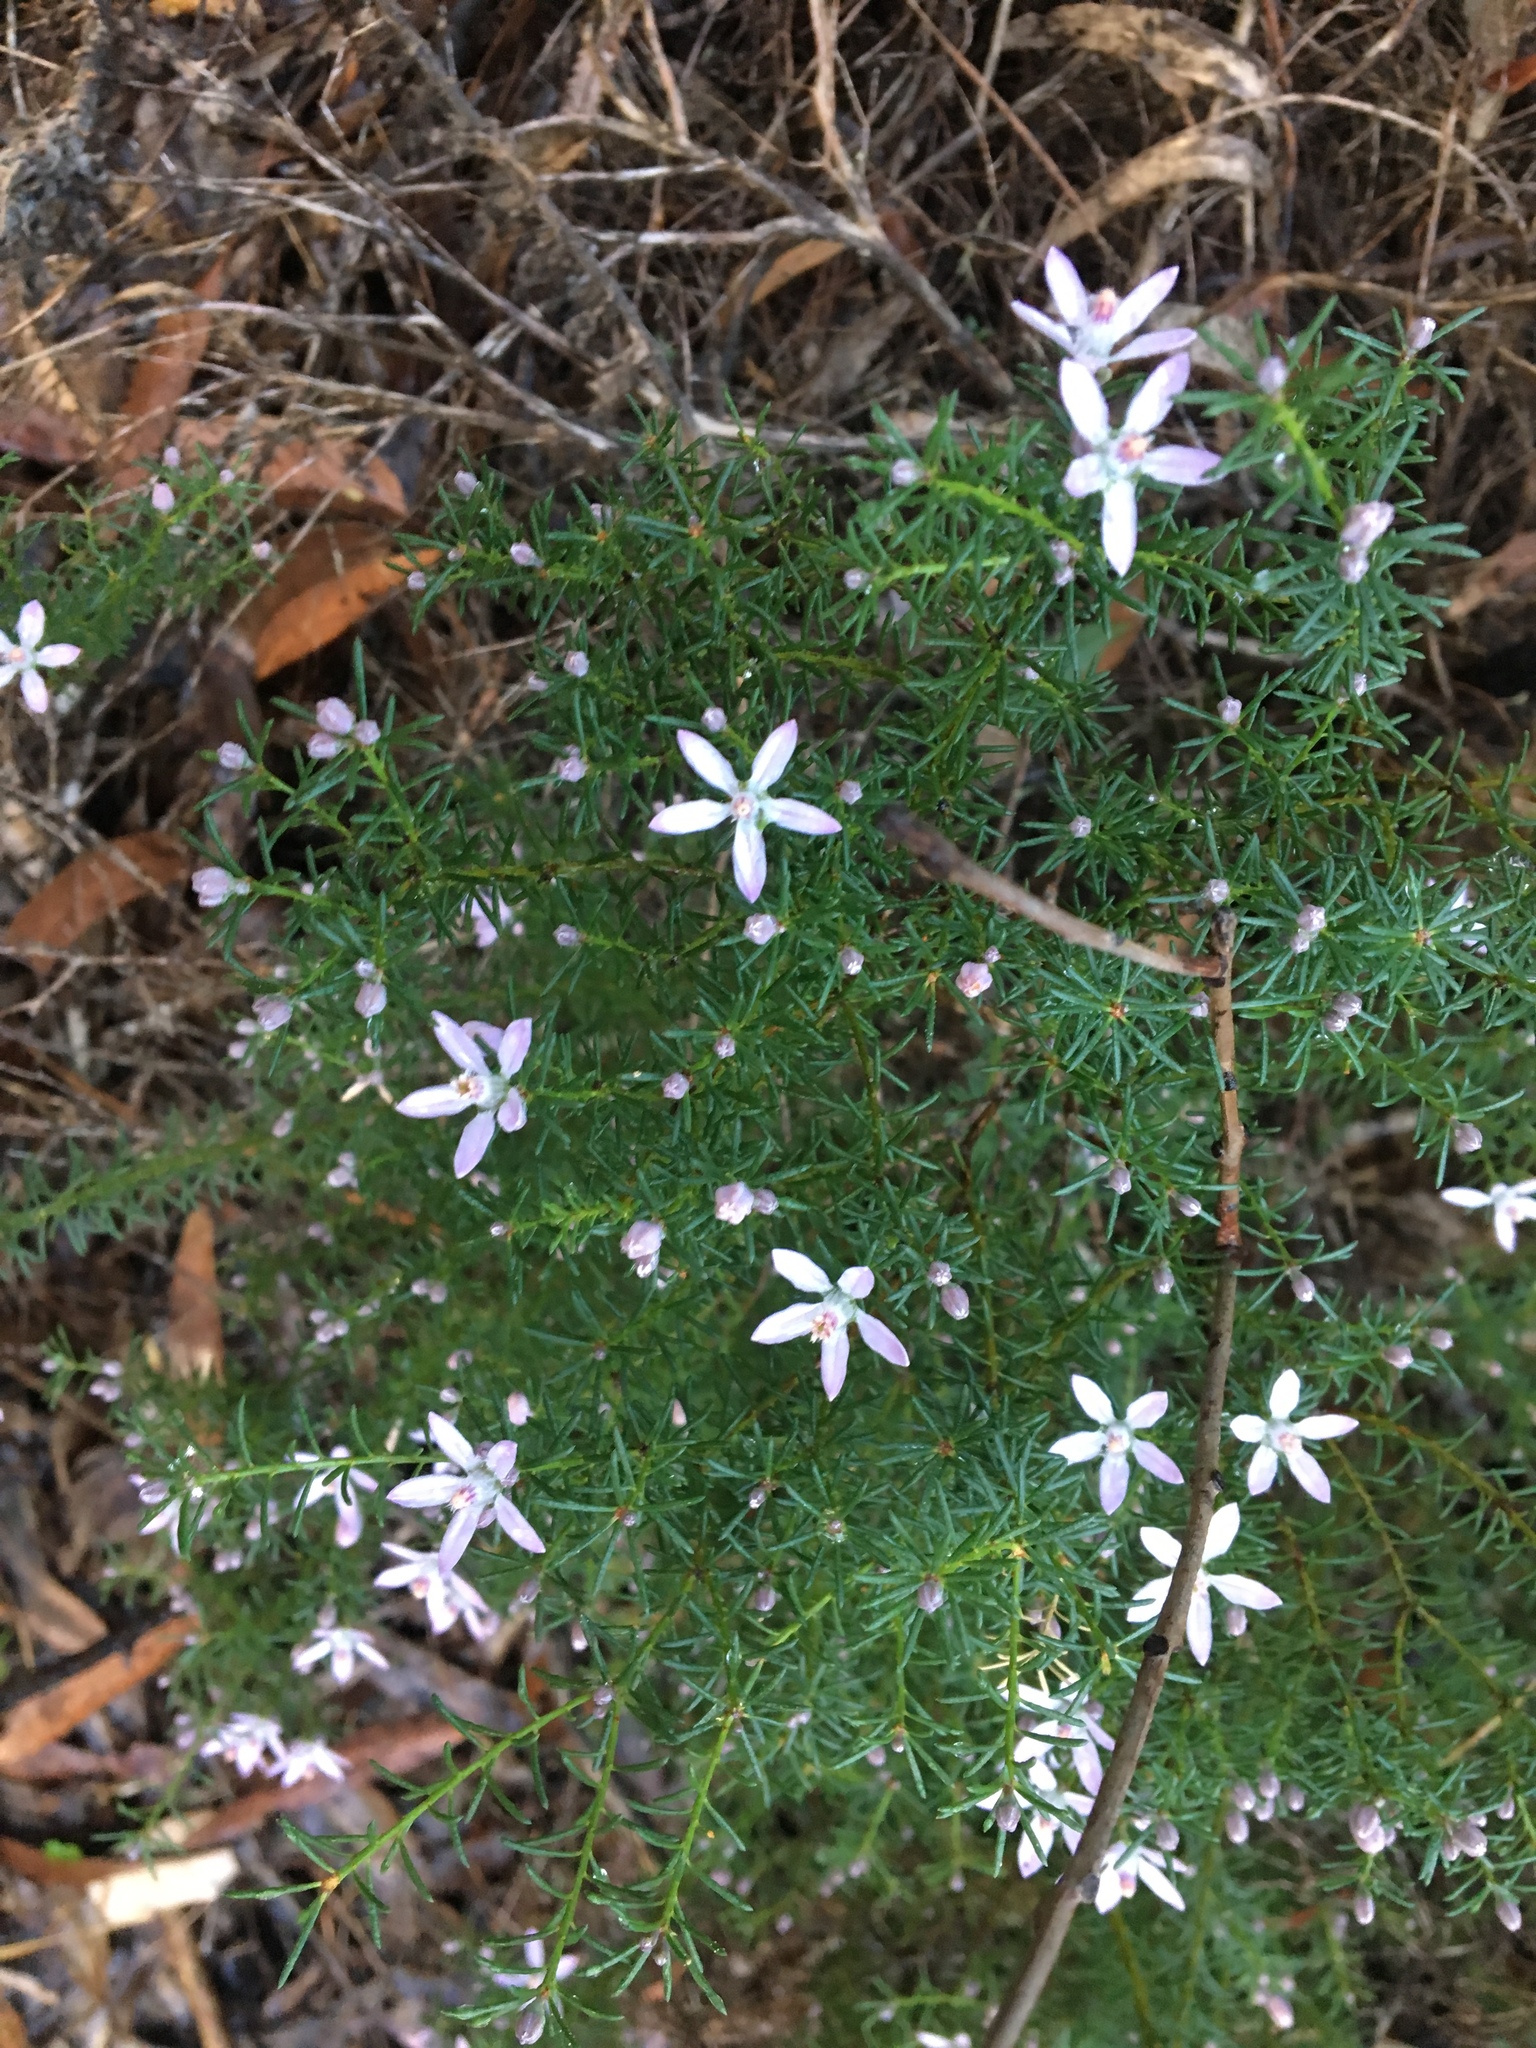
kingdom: Plantae
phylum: Tracheophyta
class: Magnoliopsida
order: Sapindales
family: Rutaceae
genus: Philotheca
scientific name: Philotheca salsolifolia
